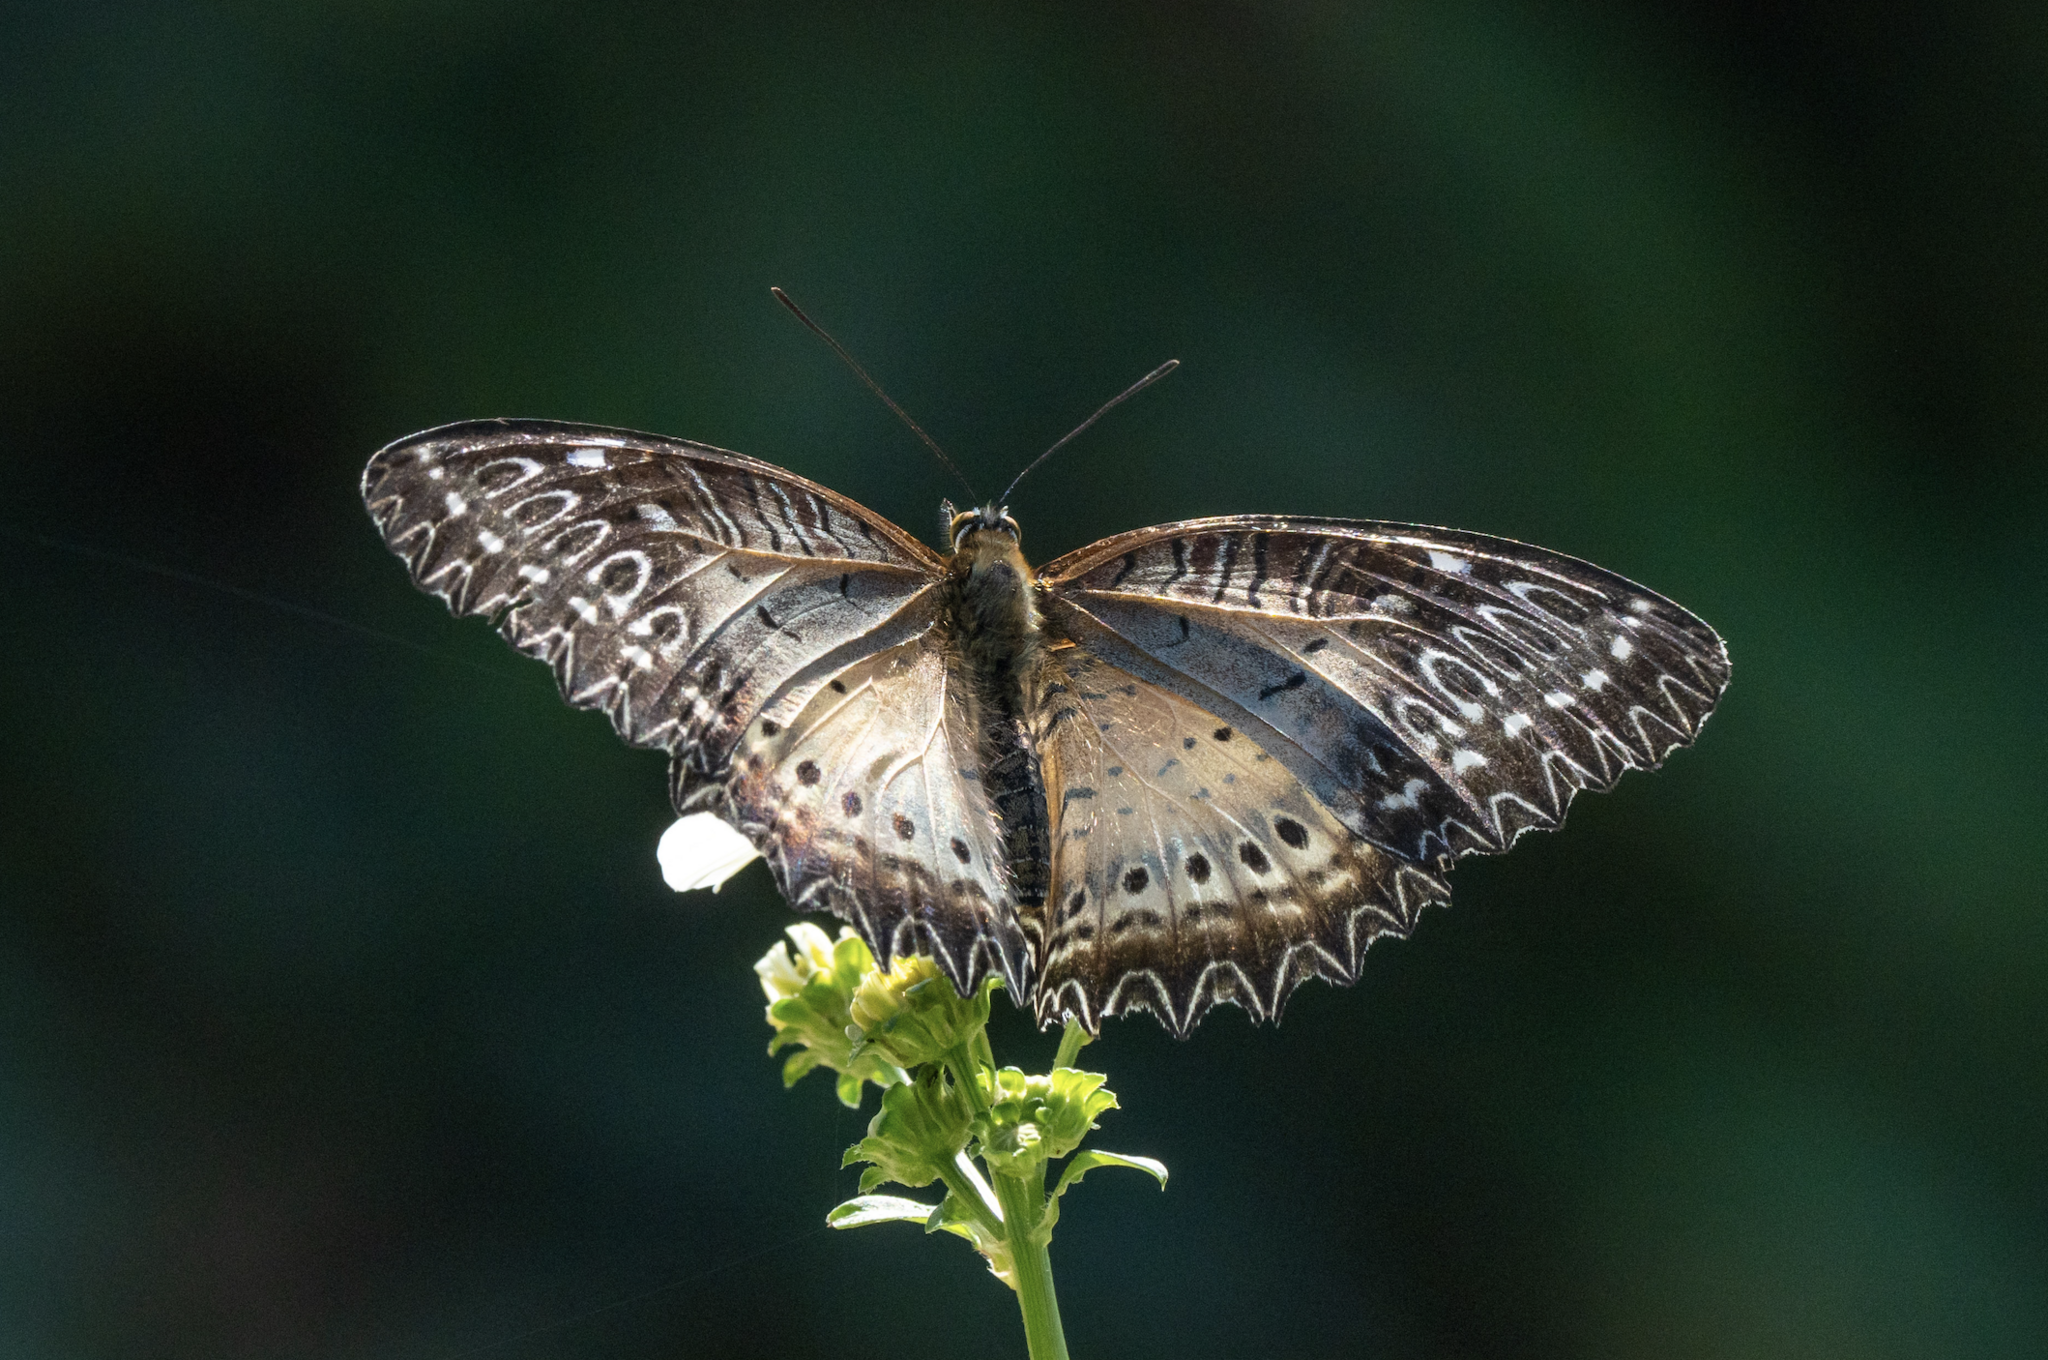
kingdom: Animalia
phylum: Arthropoda
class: Insecta
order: Lepidoptera
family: Nymphalidae
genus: Cethosia
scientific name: Cethosia biblis
